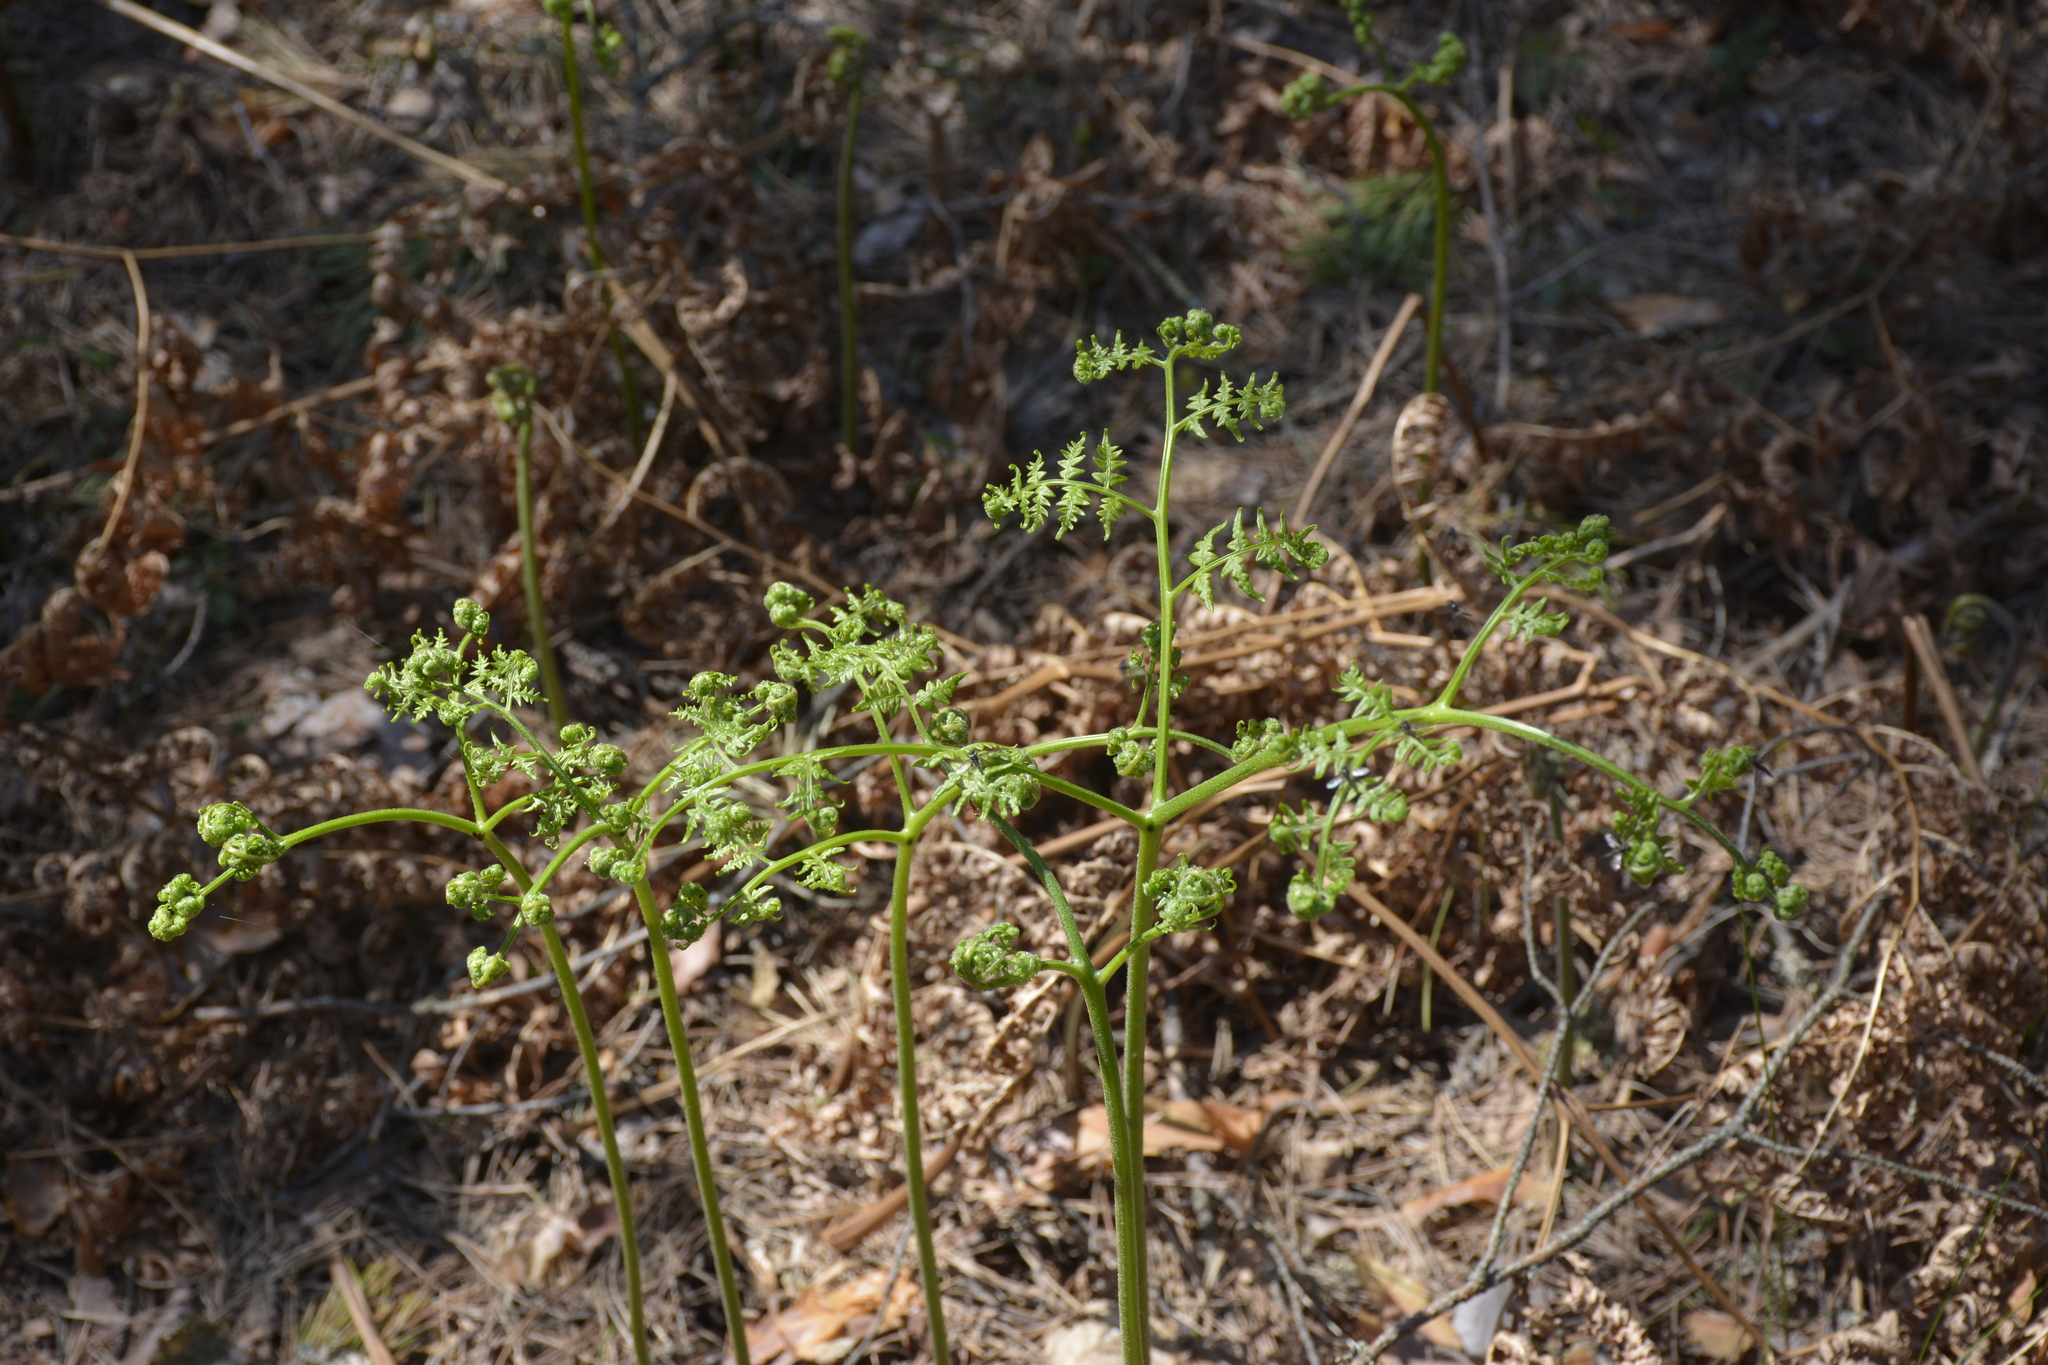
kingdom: Plantae
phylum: Tracheophyta
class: Polypodiopsida
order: Polypodiales
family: Dennstaedtiaceae
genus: Pteridium
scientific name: Pteridium aquilinum
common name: Bracken
